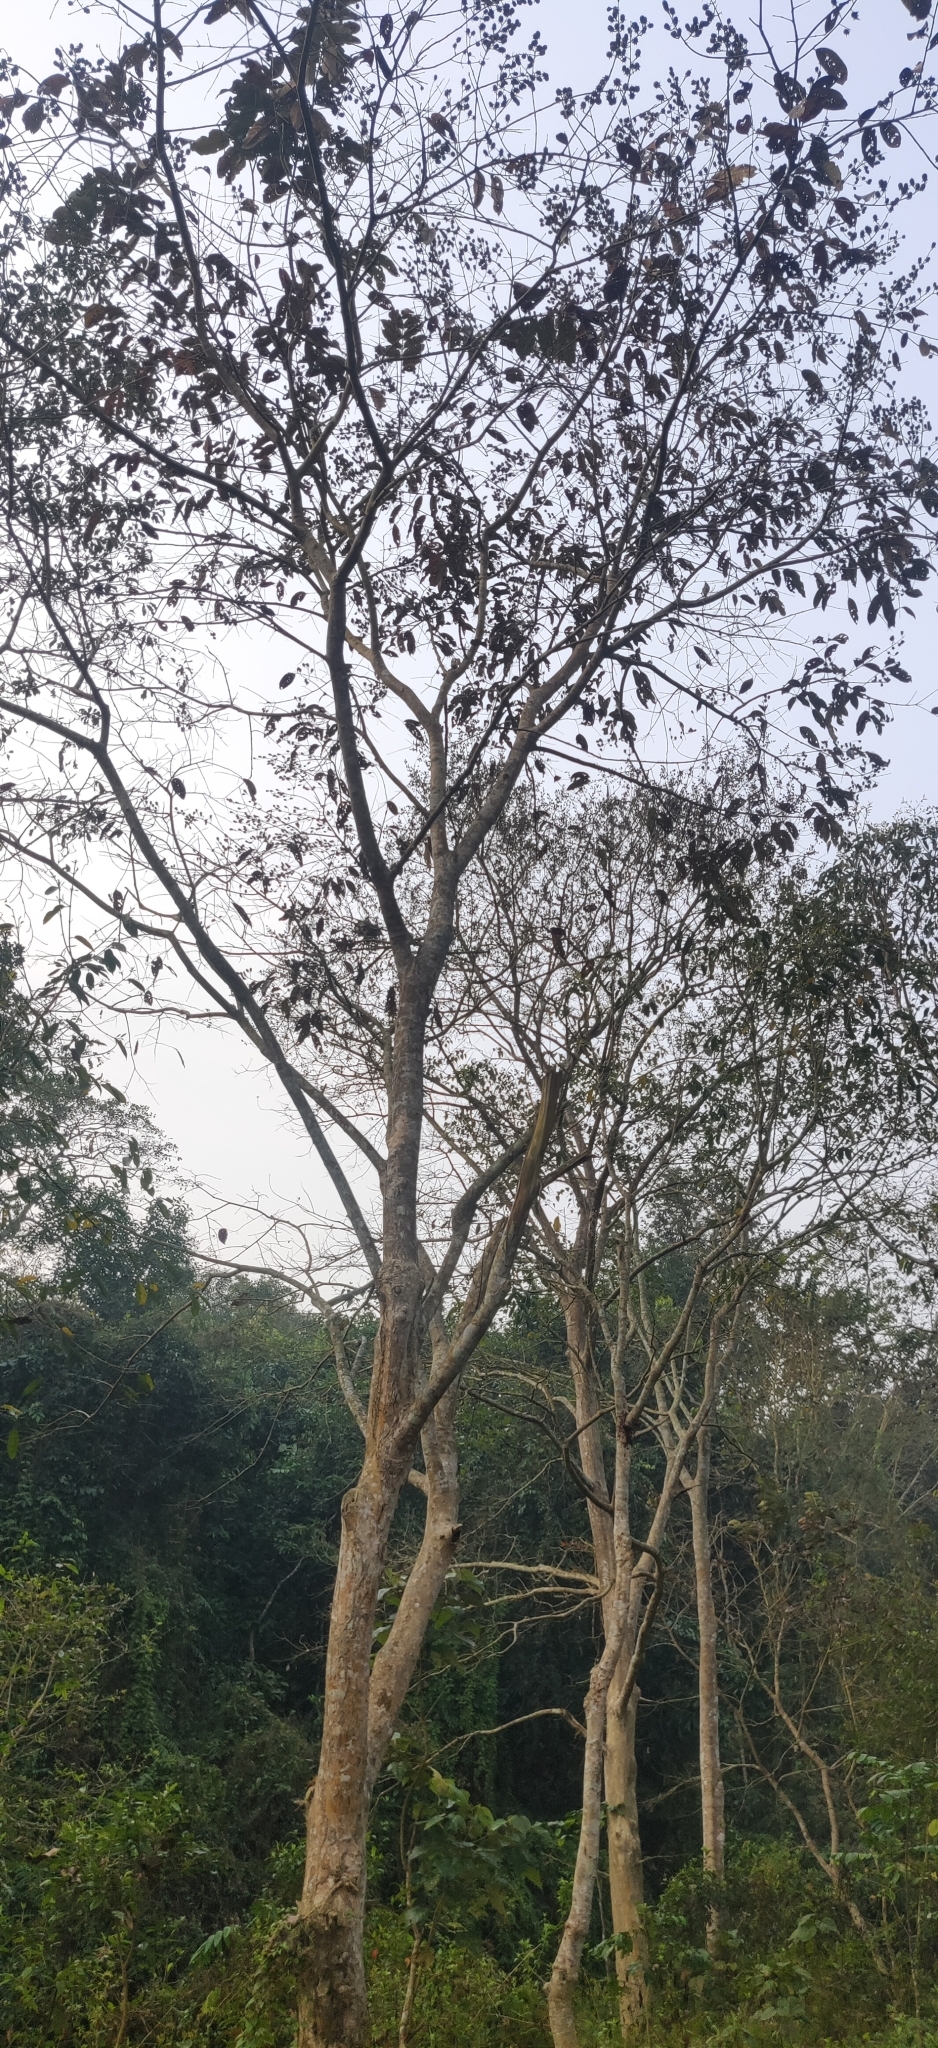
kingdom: Plantae
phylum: Tracheophyta
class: Magnoliopsida
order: Myrtales
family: Lythraceae
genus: Lagerstroemia
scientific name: Lagerstroemia speciosa
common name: Queen's crape-myrtle
